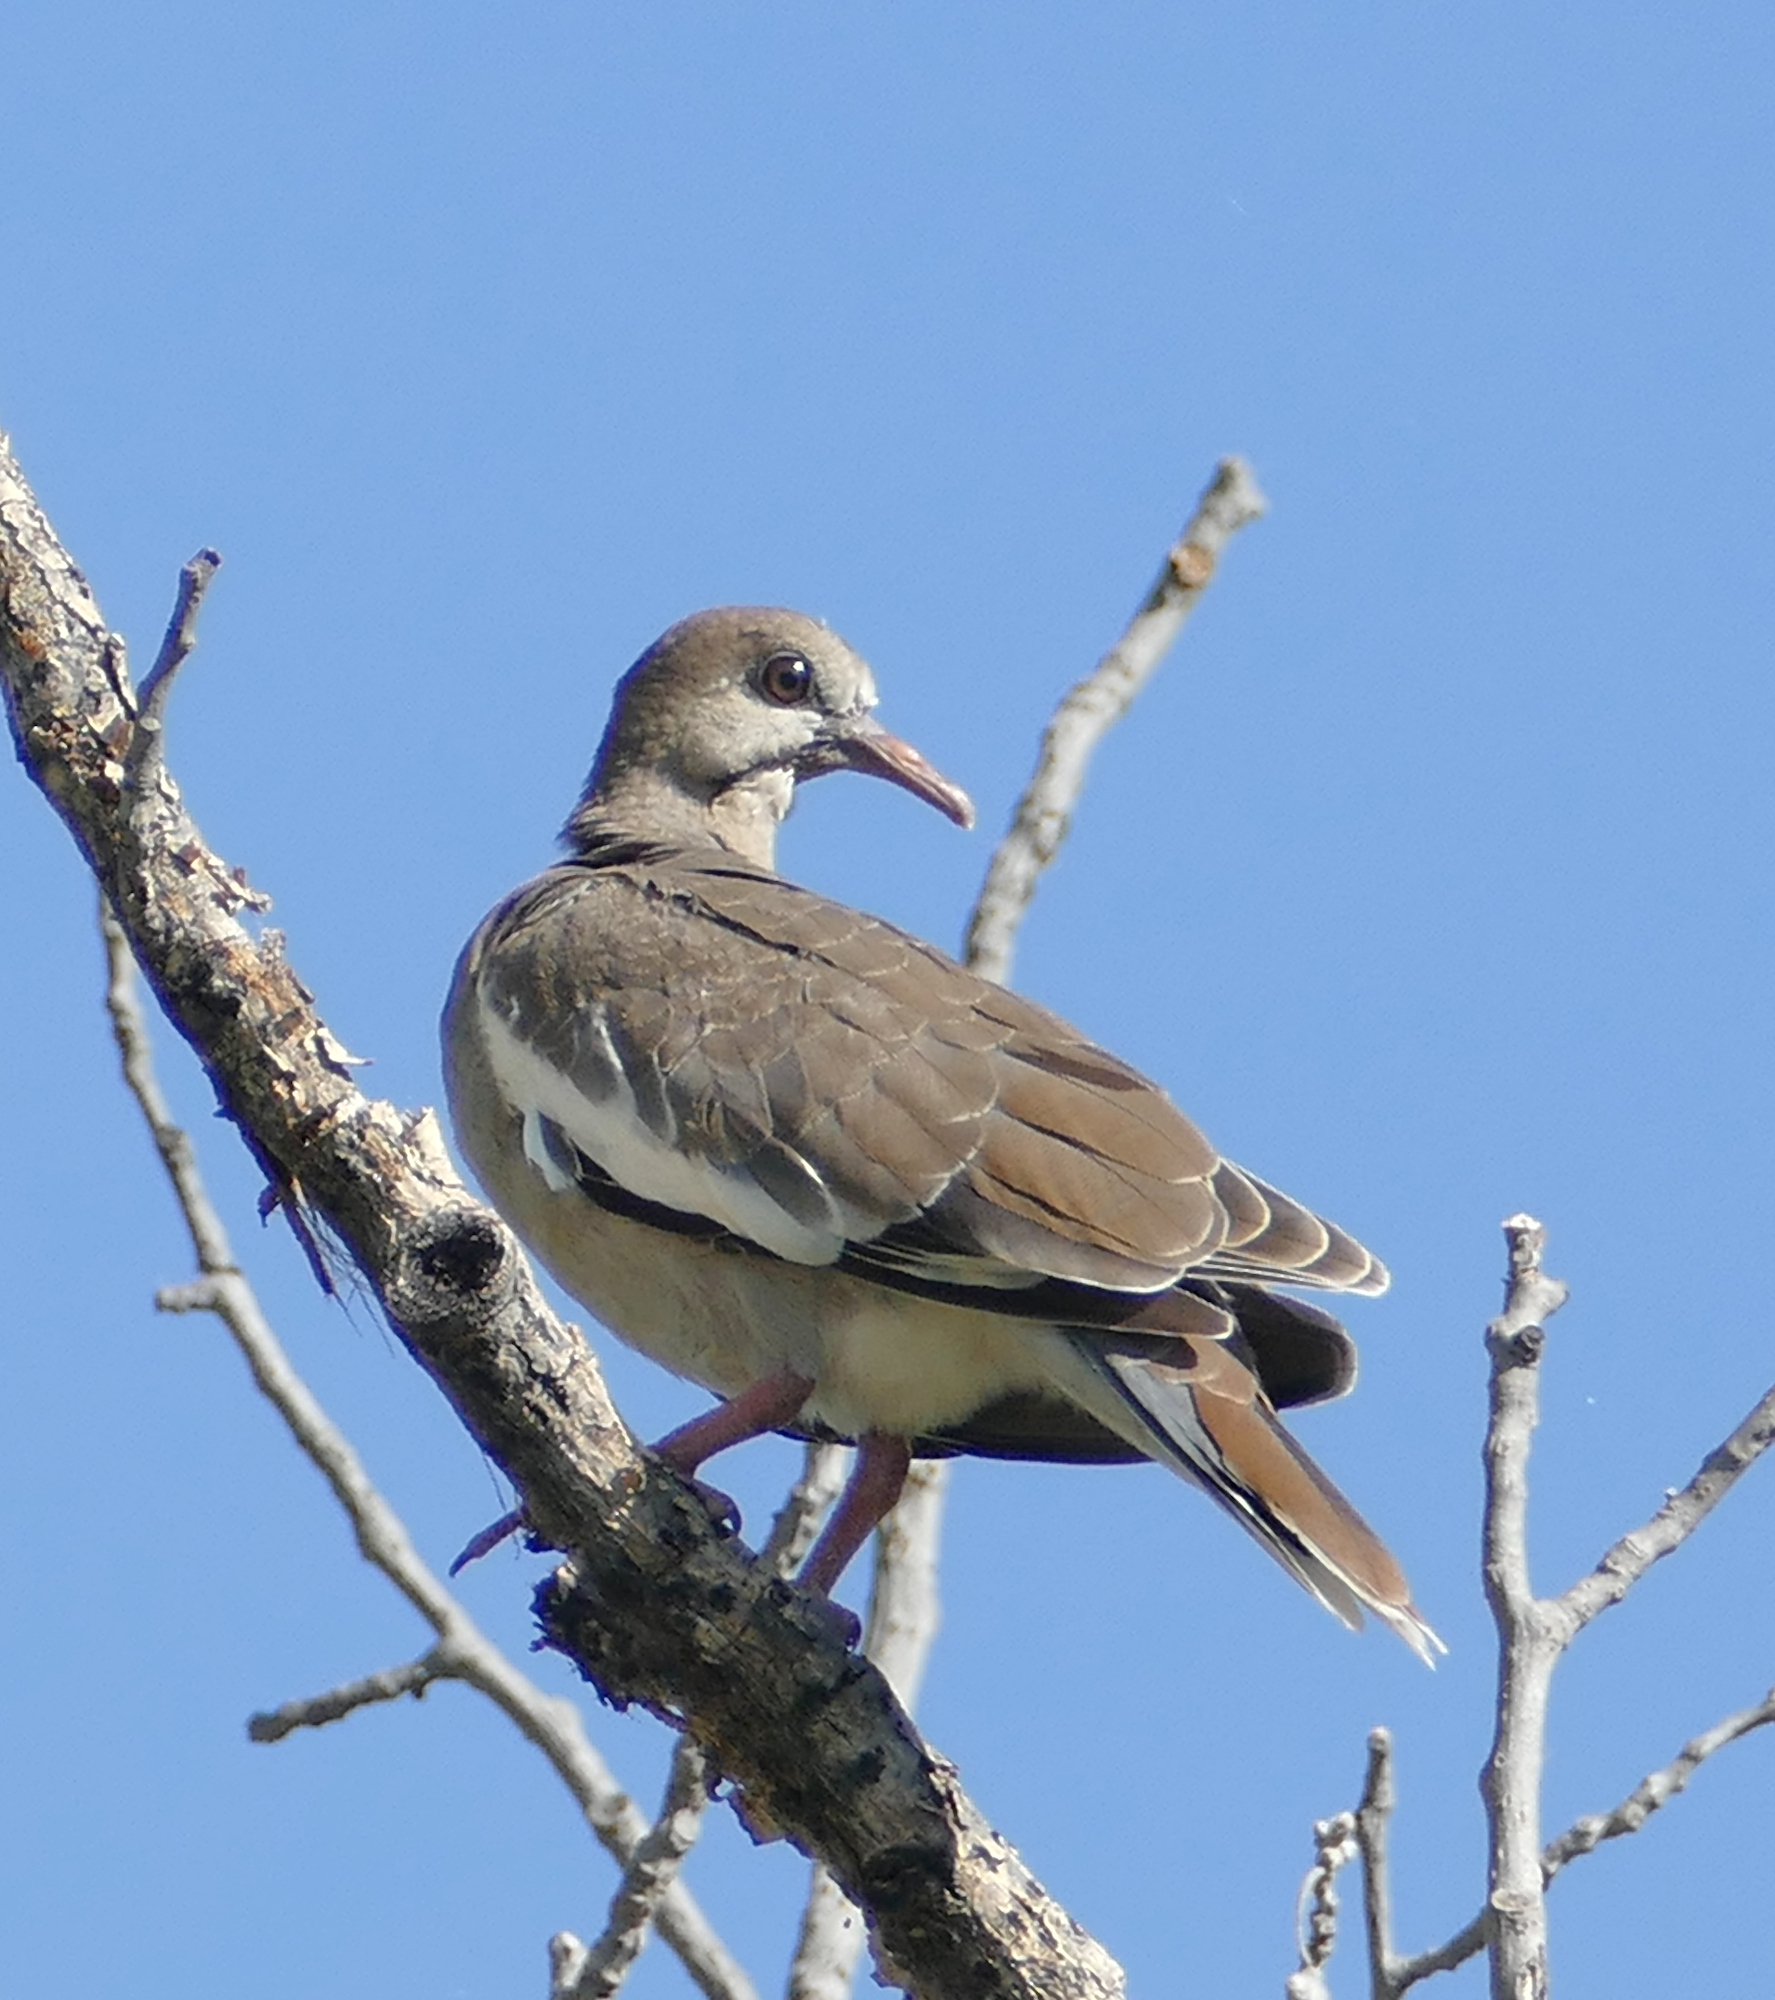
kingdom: Animalia
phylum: Chordata
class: Aves
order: Columbiformes
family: Columbidae
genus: Zenaida
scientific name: Zenaida asiatica
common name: White-winged dove
